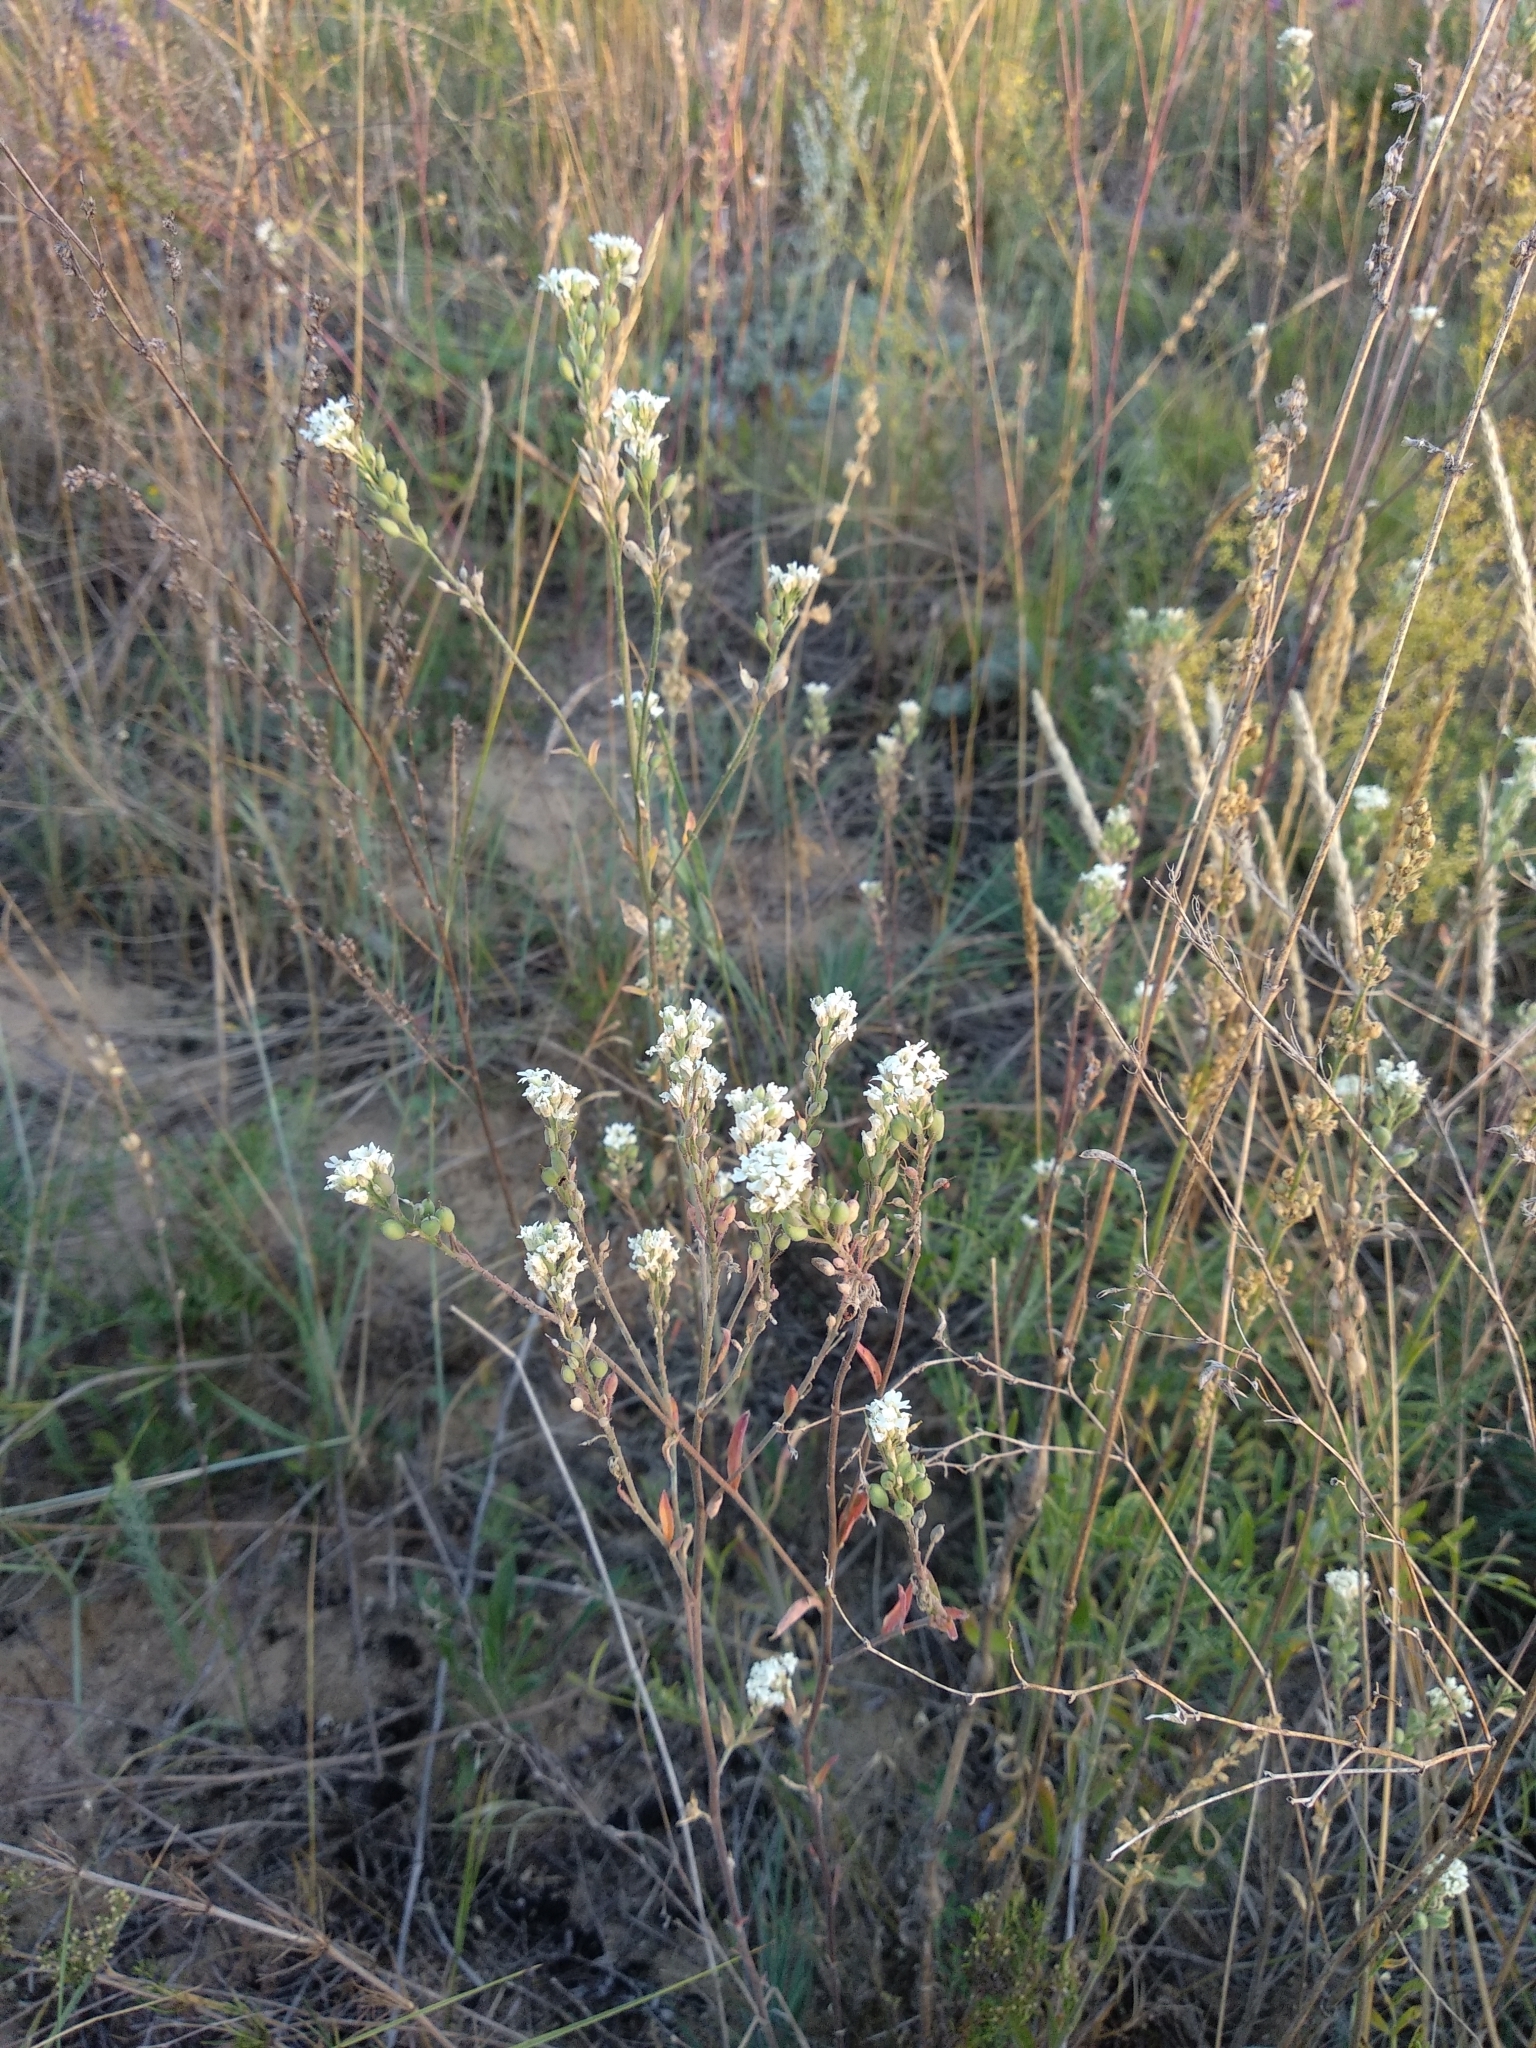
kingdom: Plantae
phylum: Tracheophyta
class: Magnoliopsida
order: Brassicales
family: Brassicaceae
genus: Berteroa
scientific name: Berteroa incana
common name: Hoary alison
